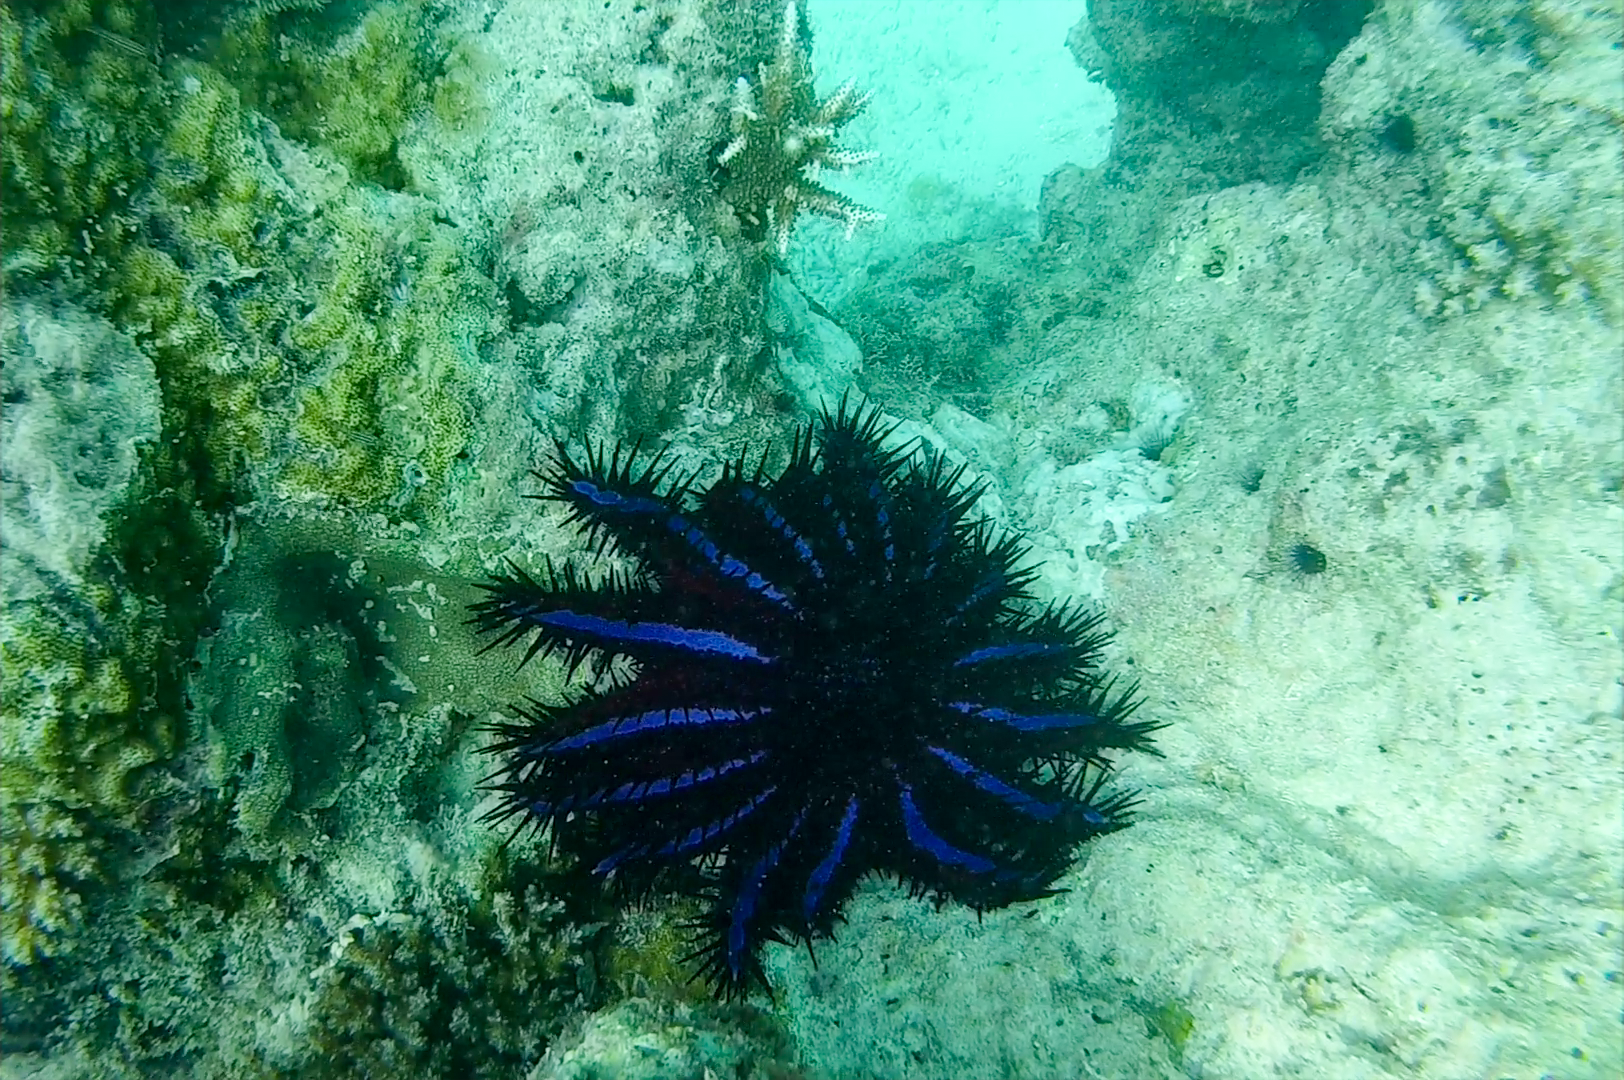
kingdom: Animalia
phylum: Echinodermata
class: Asteroidea
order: Valvatida
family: Acanthasteridae
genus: Acanthaster
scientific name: Acanthaster planci
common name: Crown-of-thorns
